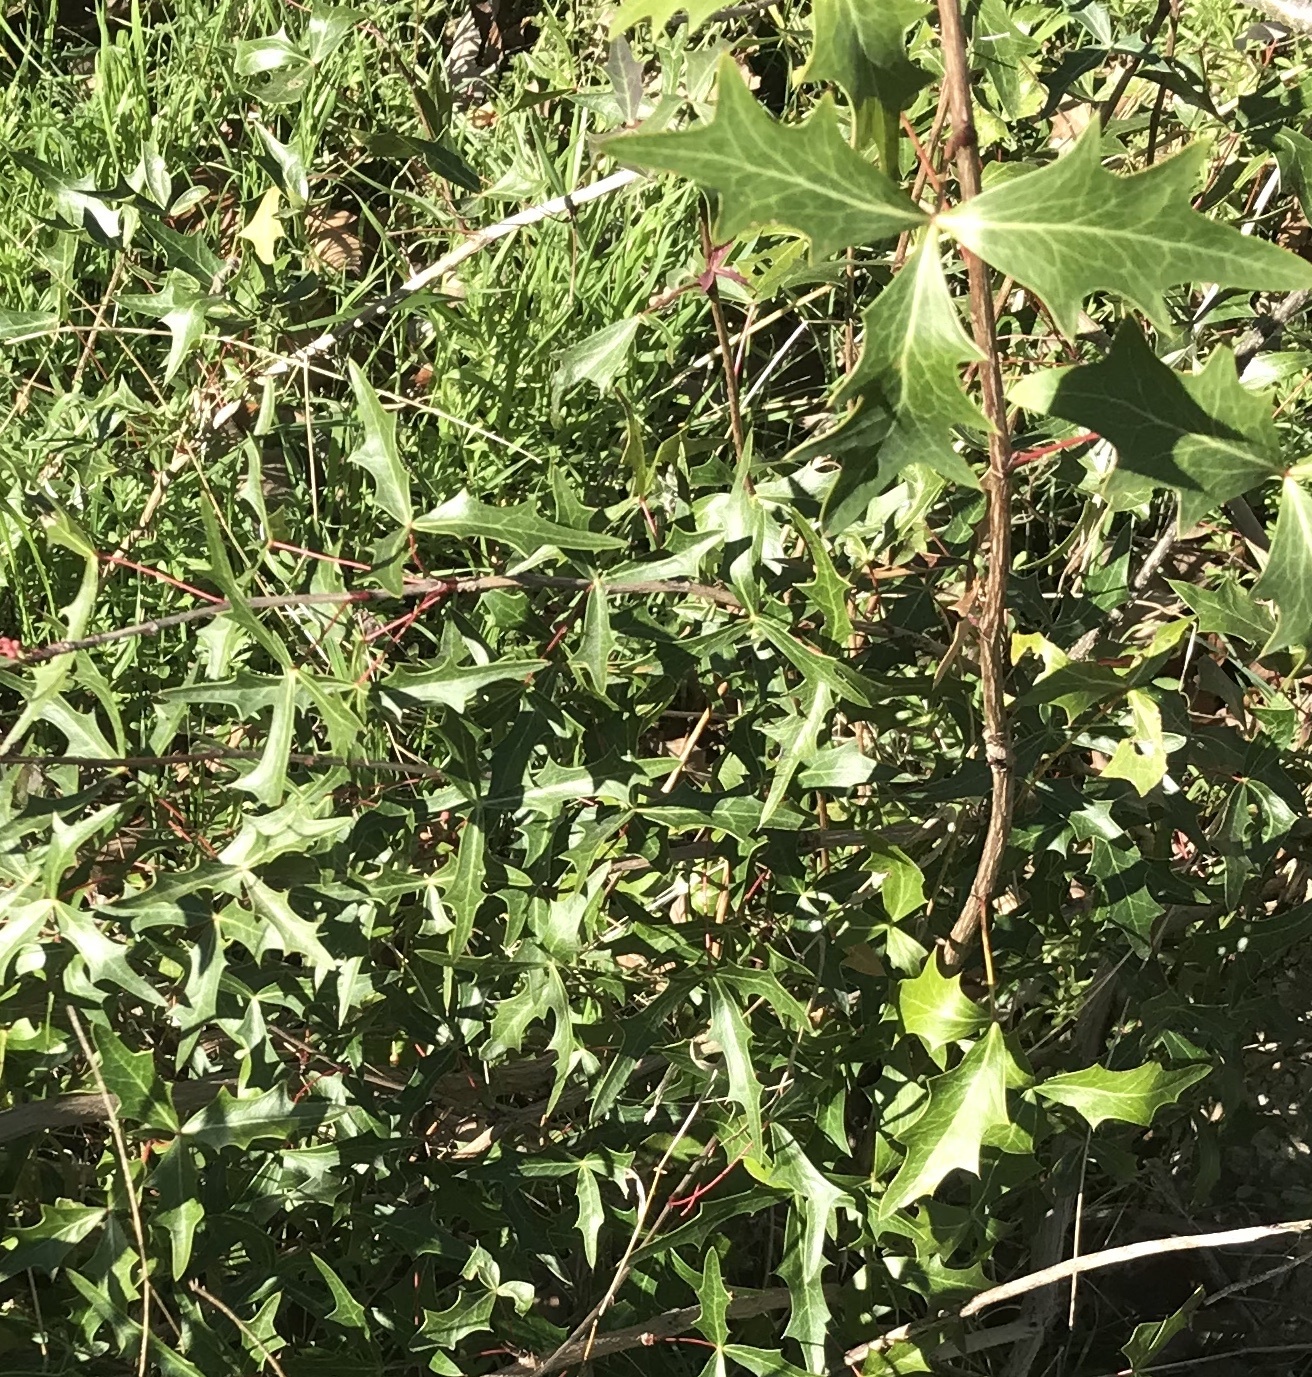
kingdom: Plantae
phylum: Tracheophyta
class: Magnoliopsida
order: Ranunculales
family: Berberidaceae
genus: Alloberberis
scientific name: Alloberberis trifoliolata
